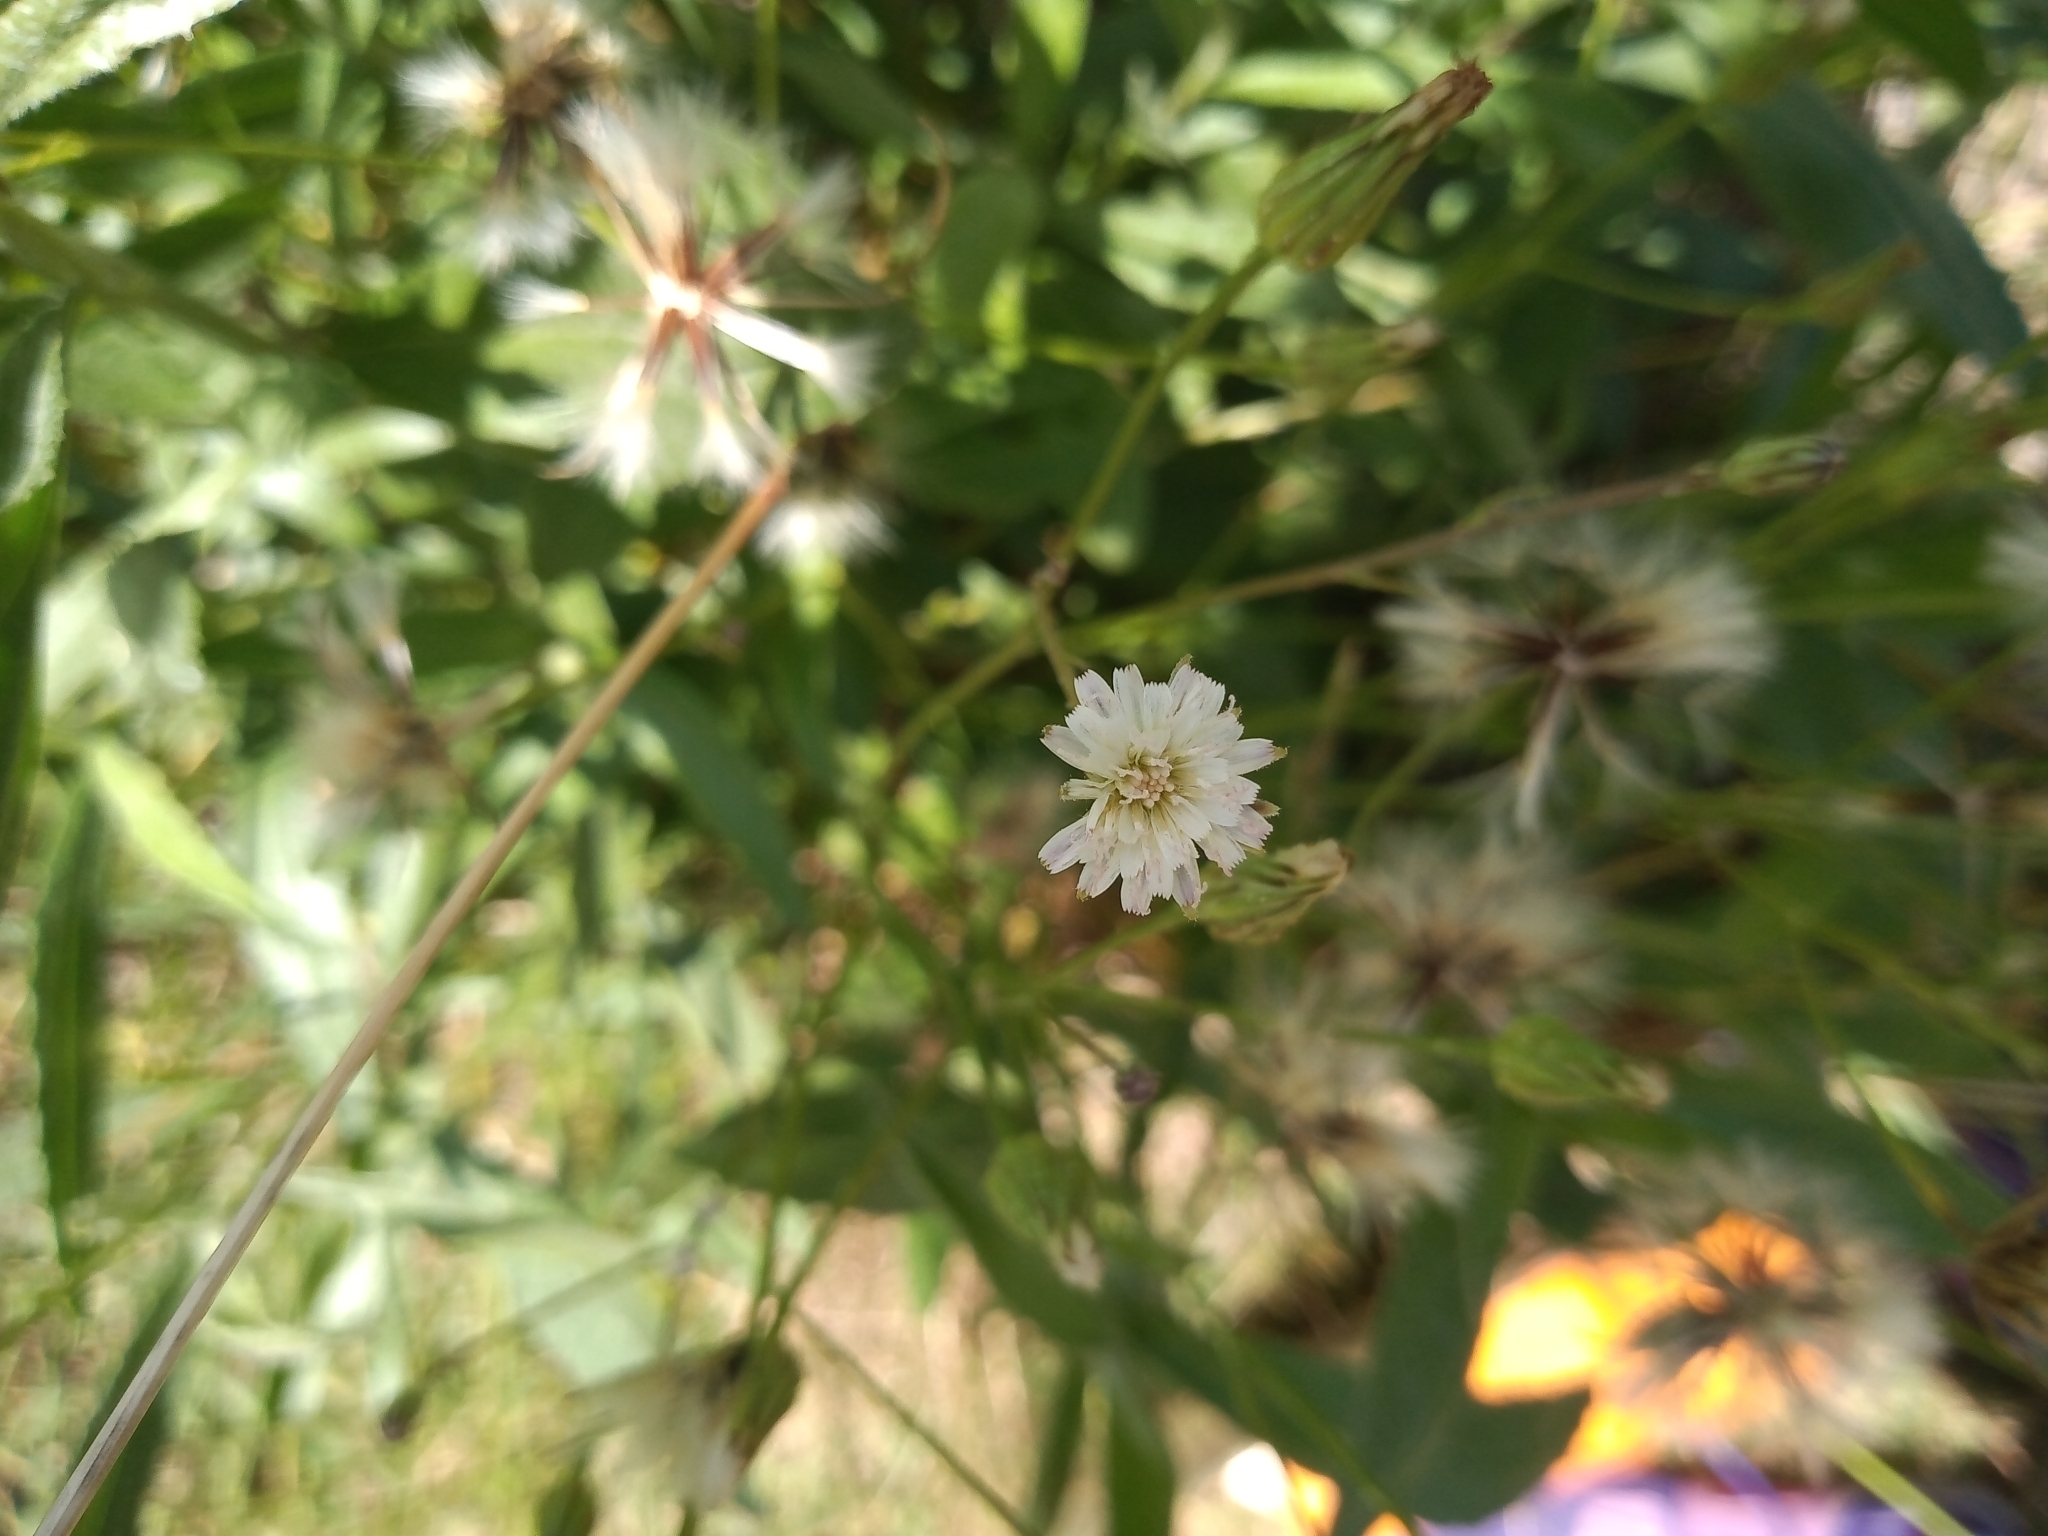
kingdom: Plantae
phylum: Tracheophyta
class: Magnoliopsida
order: Asterales
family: Asteraceae
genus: Hypochaeris
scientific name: Hypochaeris albiflora
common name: White flatweed
